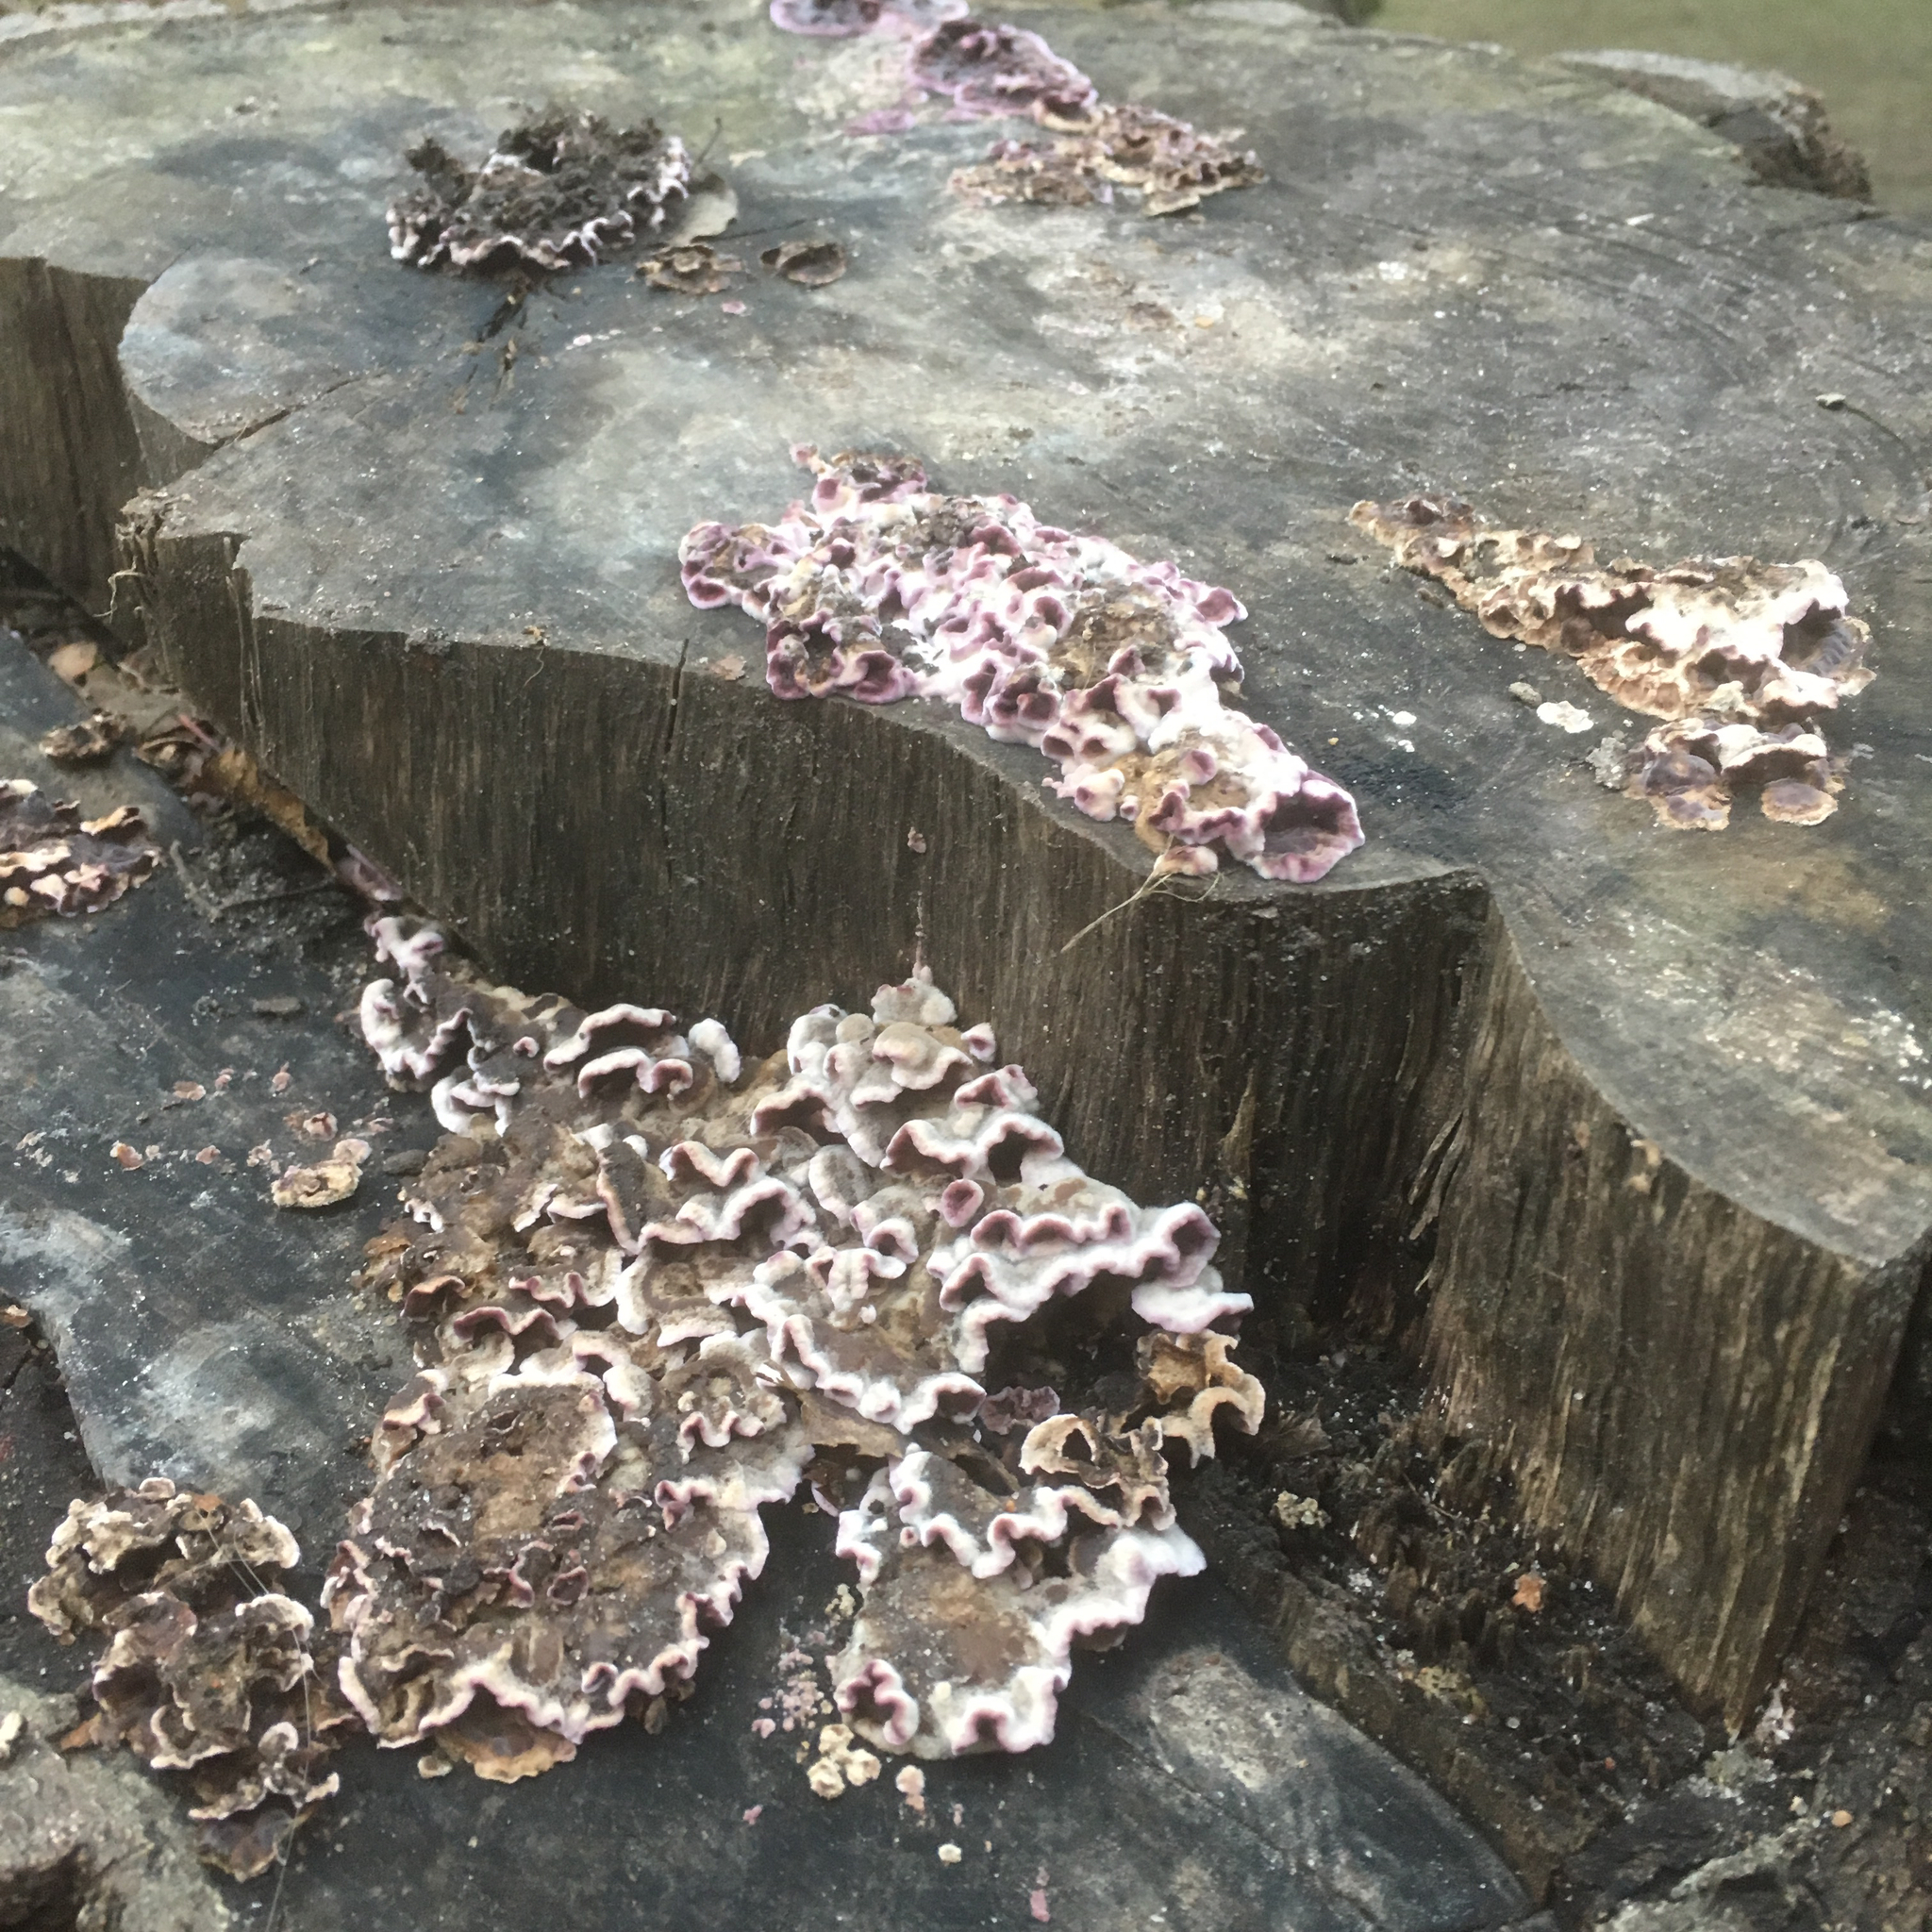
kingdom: Fungi
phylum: Basidiomycota
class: Agaricomycetes
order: Agaricales
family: Cyphellaceae
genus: Chondrostereum
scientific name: Chondrostereum purpureum
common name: Silver leaf disease
